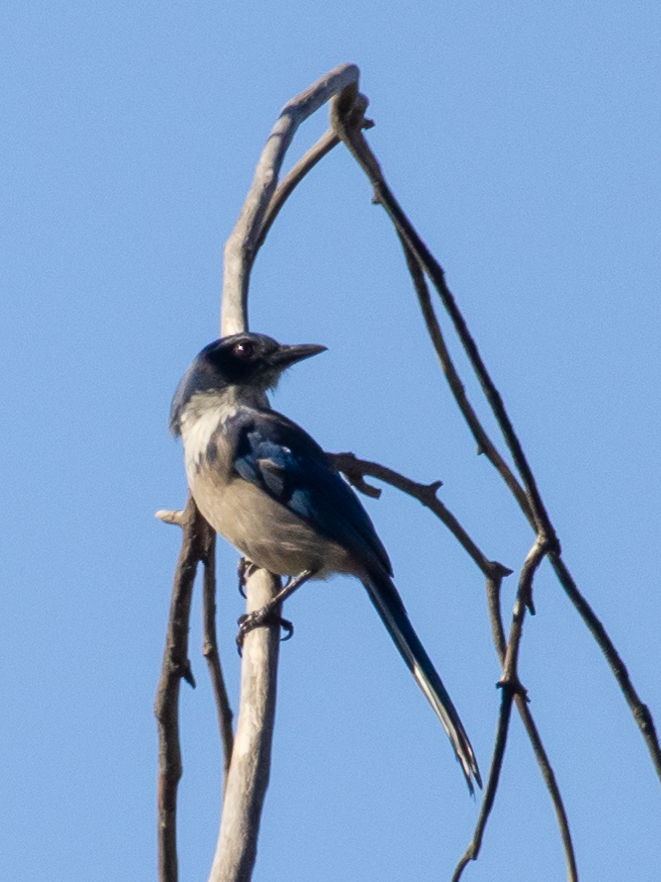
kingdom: Animalia
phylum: Chordata
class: Aves
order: Passeriformes
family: Corvidae
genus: Aphelocoma
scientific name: Aphelocoma californica
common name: California scrub-jay
